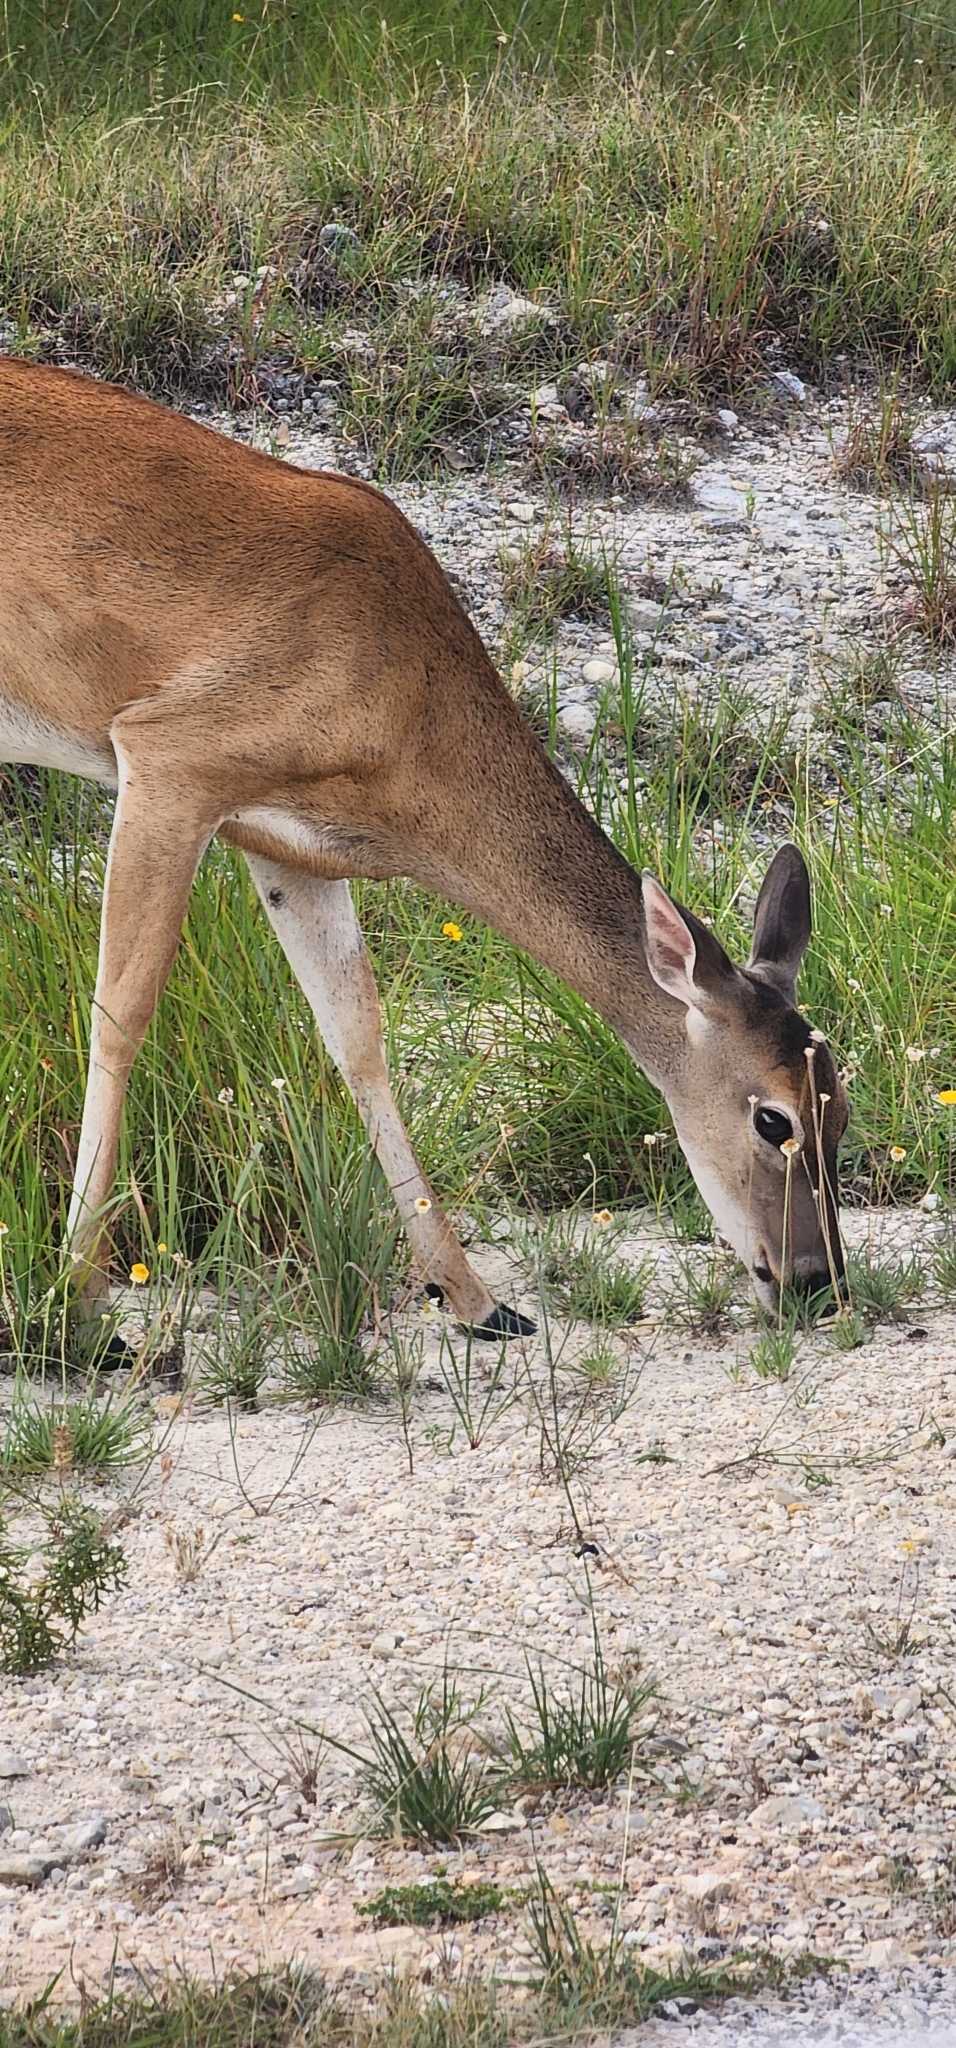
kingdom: Animalia
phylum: Chordata
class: Mammalia
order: Artiodactyla
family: Cervidae
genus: Odocoileus
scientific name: Odocoileus virginianus
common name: White-tailed deer
